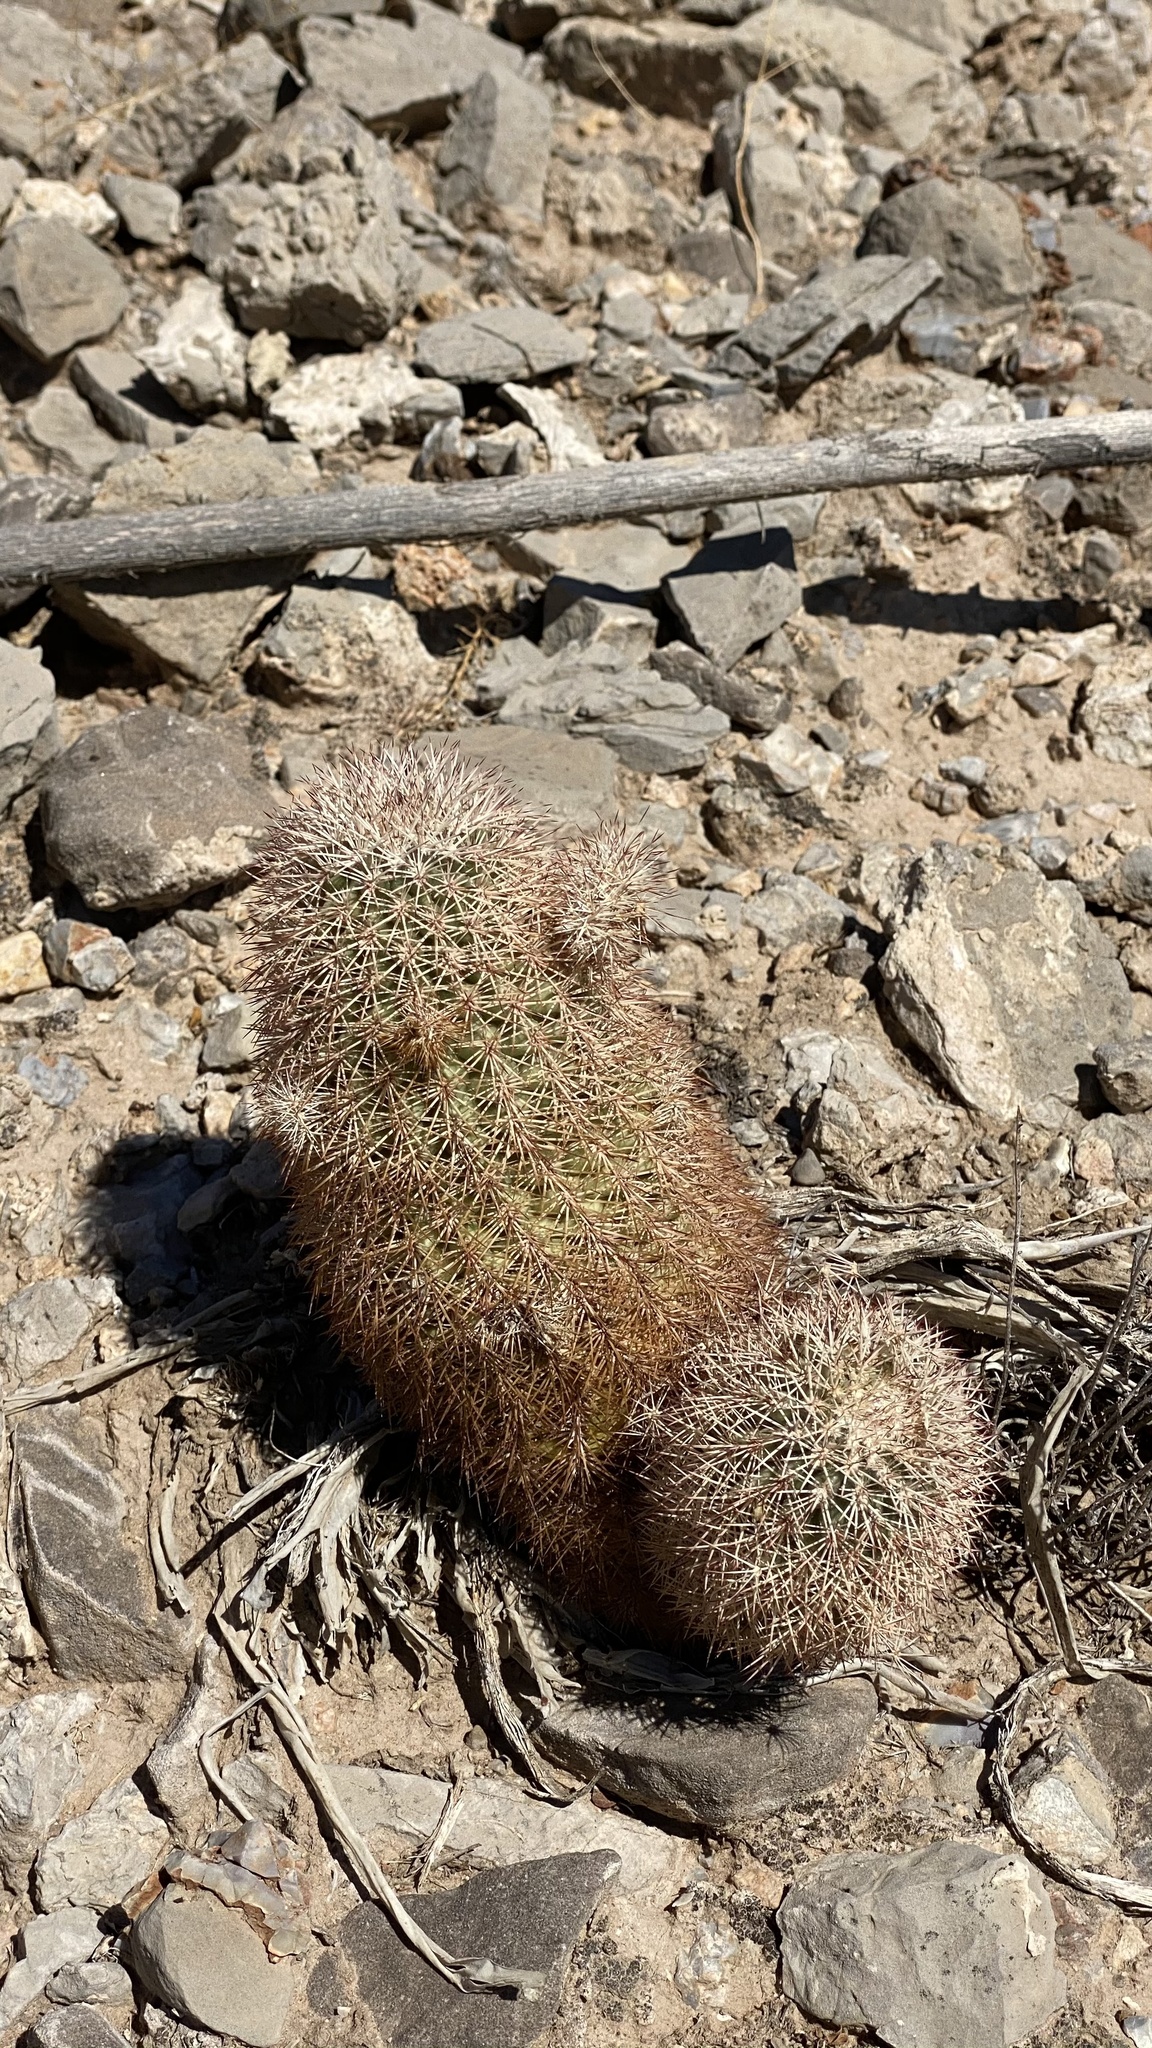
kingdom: Plantae
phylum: Tracheophyta
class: Magnoliopsida
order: Caryophyllales
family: Cactaceae
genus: Echinocereus
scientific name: Echinocereus dasyacanthus
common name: Spiny hedgehog cactus
